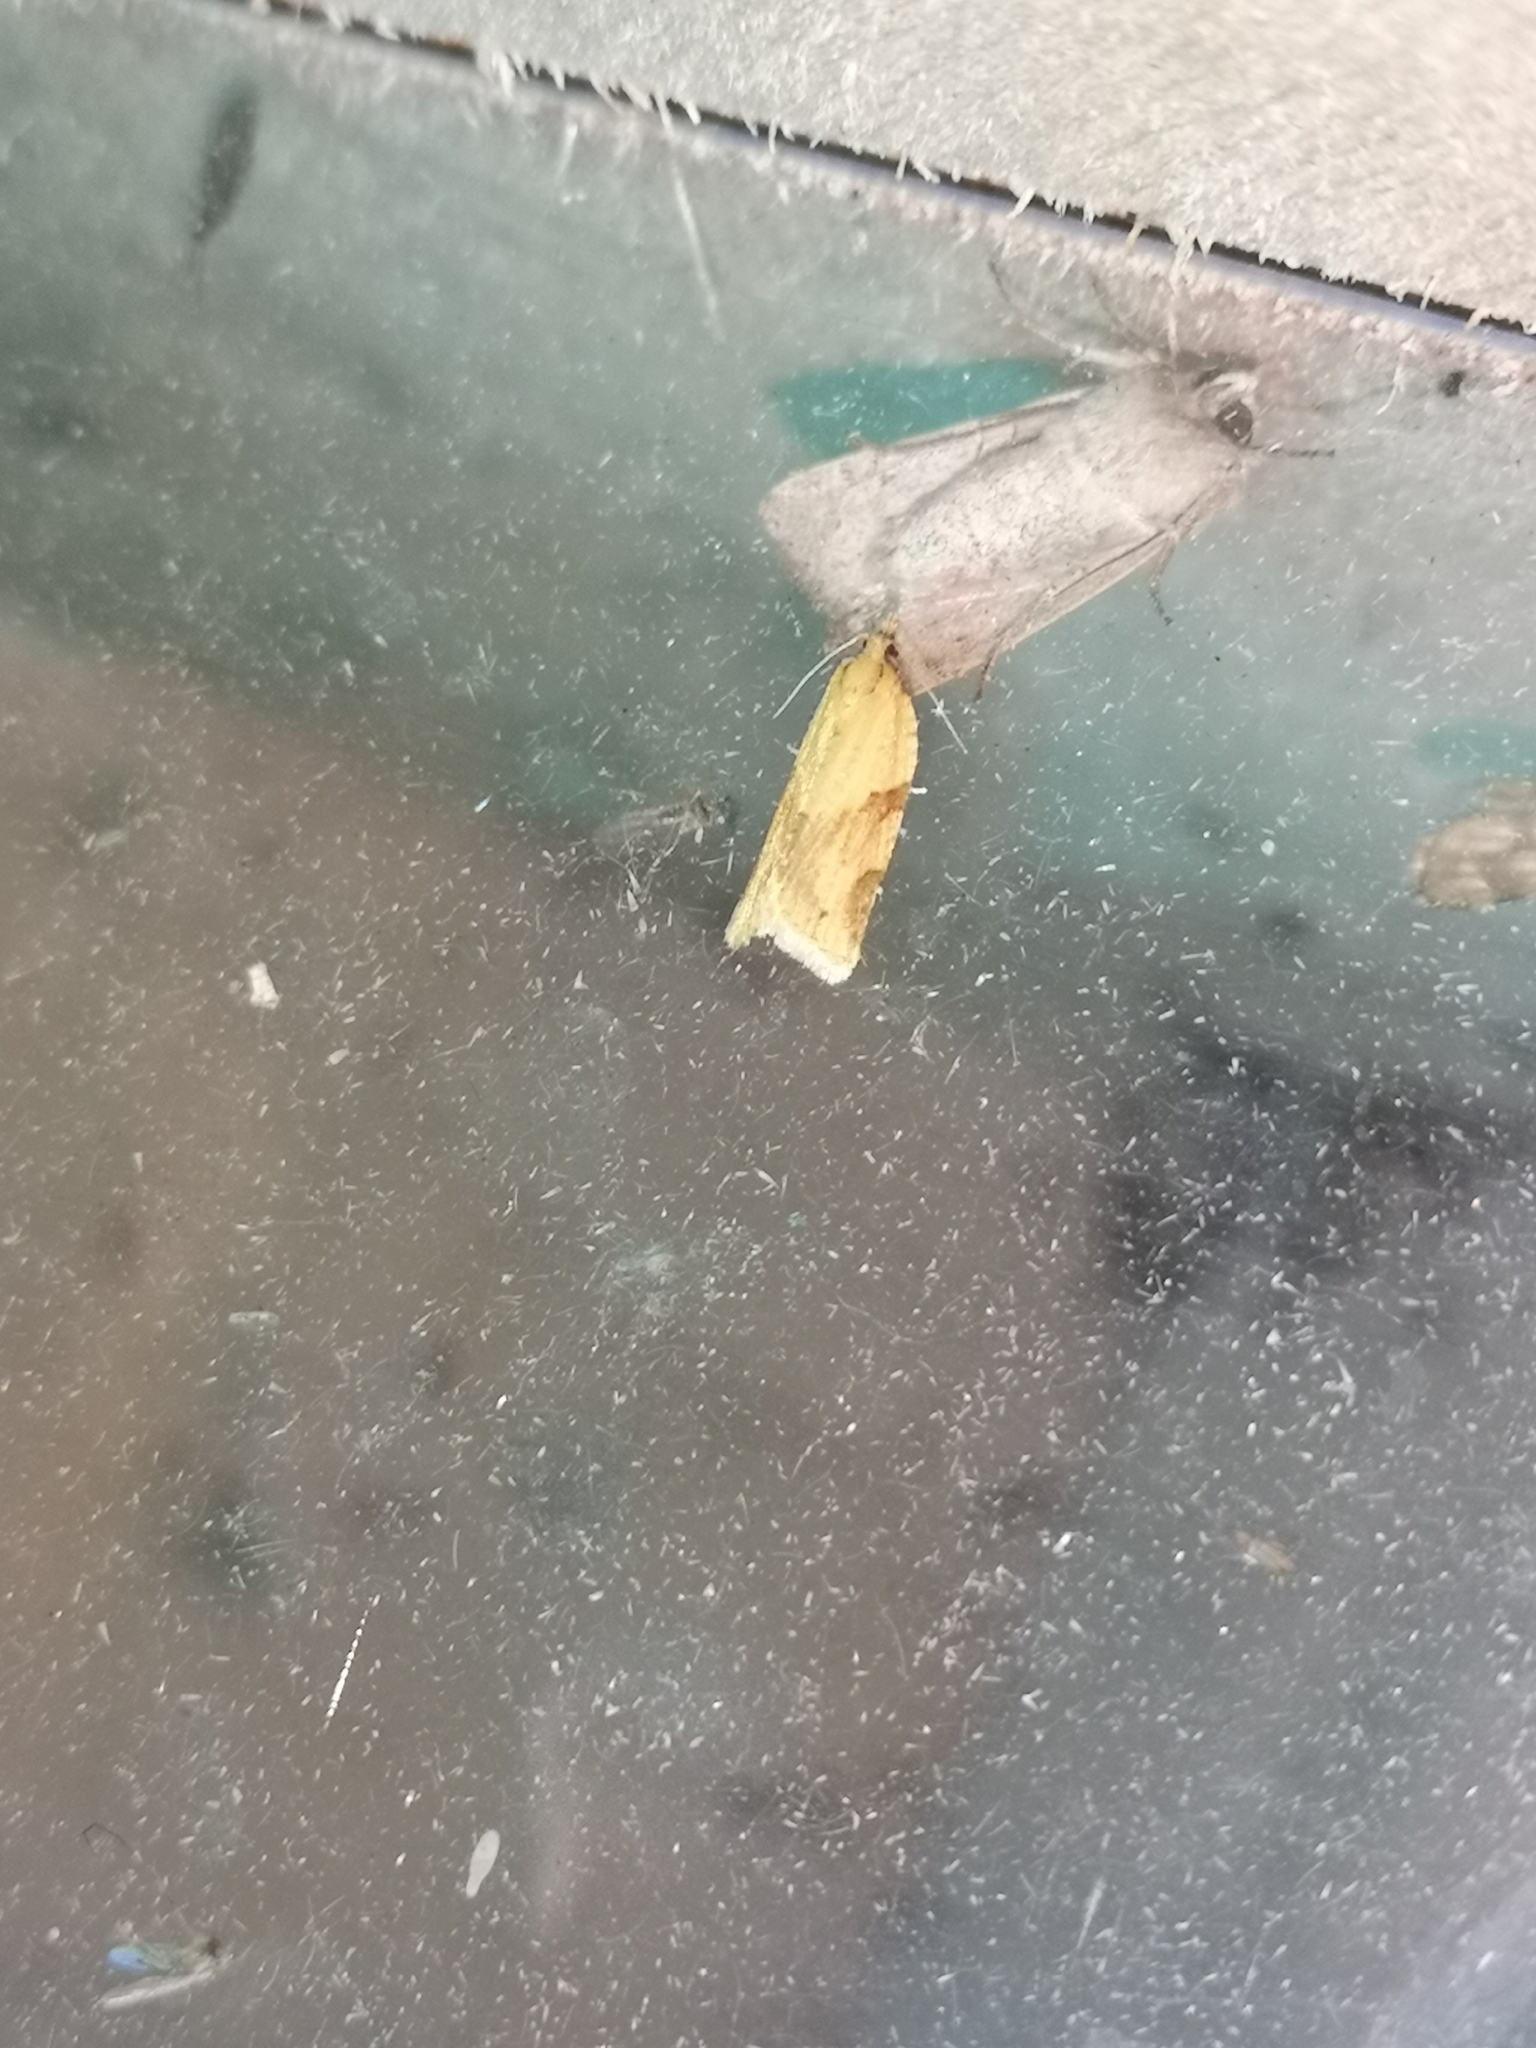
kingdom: Animalia
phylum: Arthropoda
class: Insecta
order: Lepidoptera
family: Tortricidae
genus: Clepsis
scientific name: Clepsis spectrana
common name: Cyclamen tortrix
